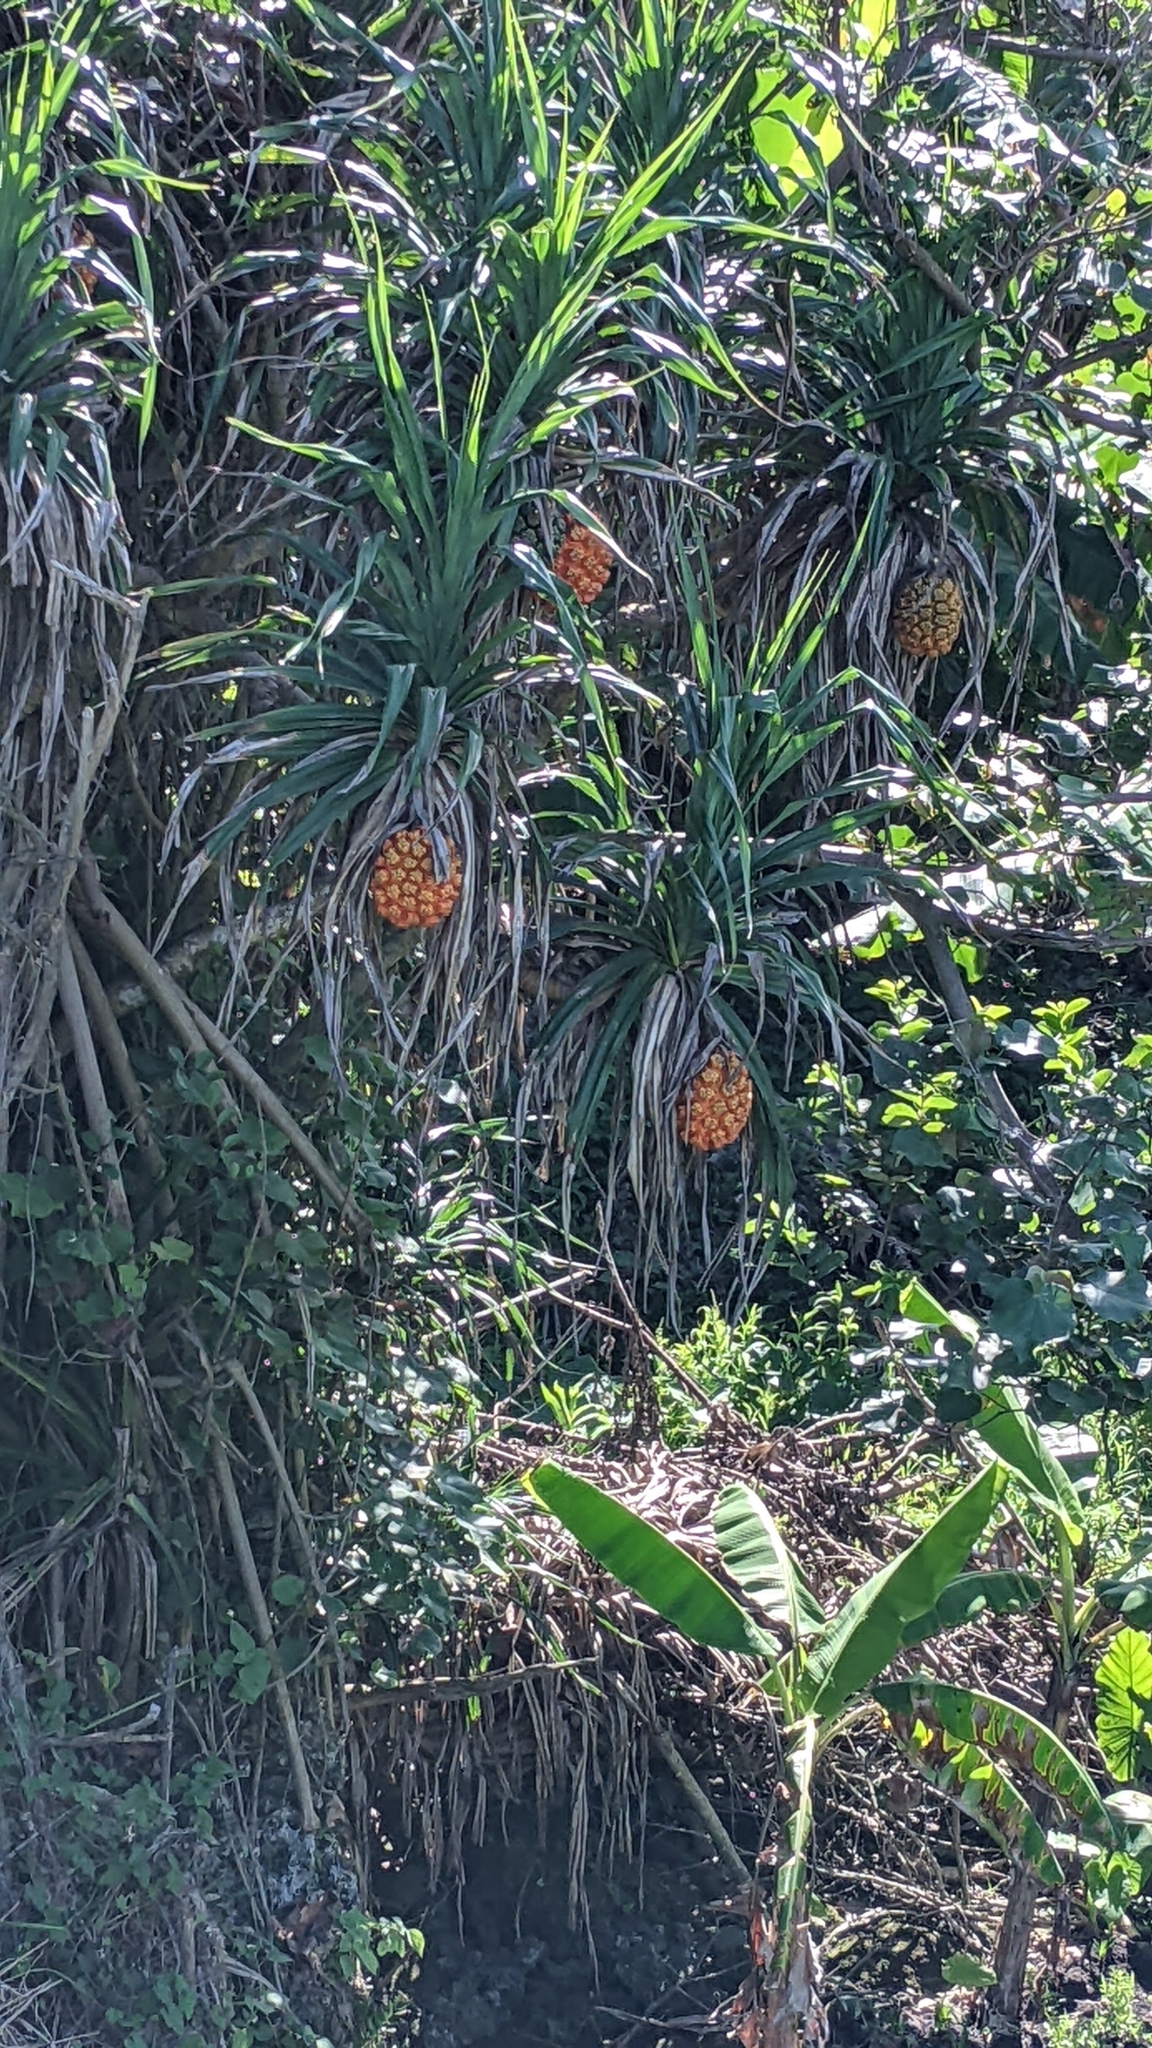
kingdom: Plantae
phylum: Tracheophyta
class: Liliopsida
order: Pandanales
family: Pandanaceae
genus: Pandanus
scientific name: Pandanus odorifer
